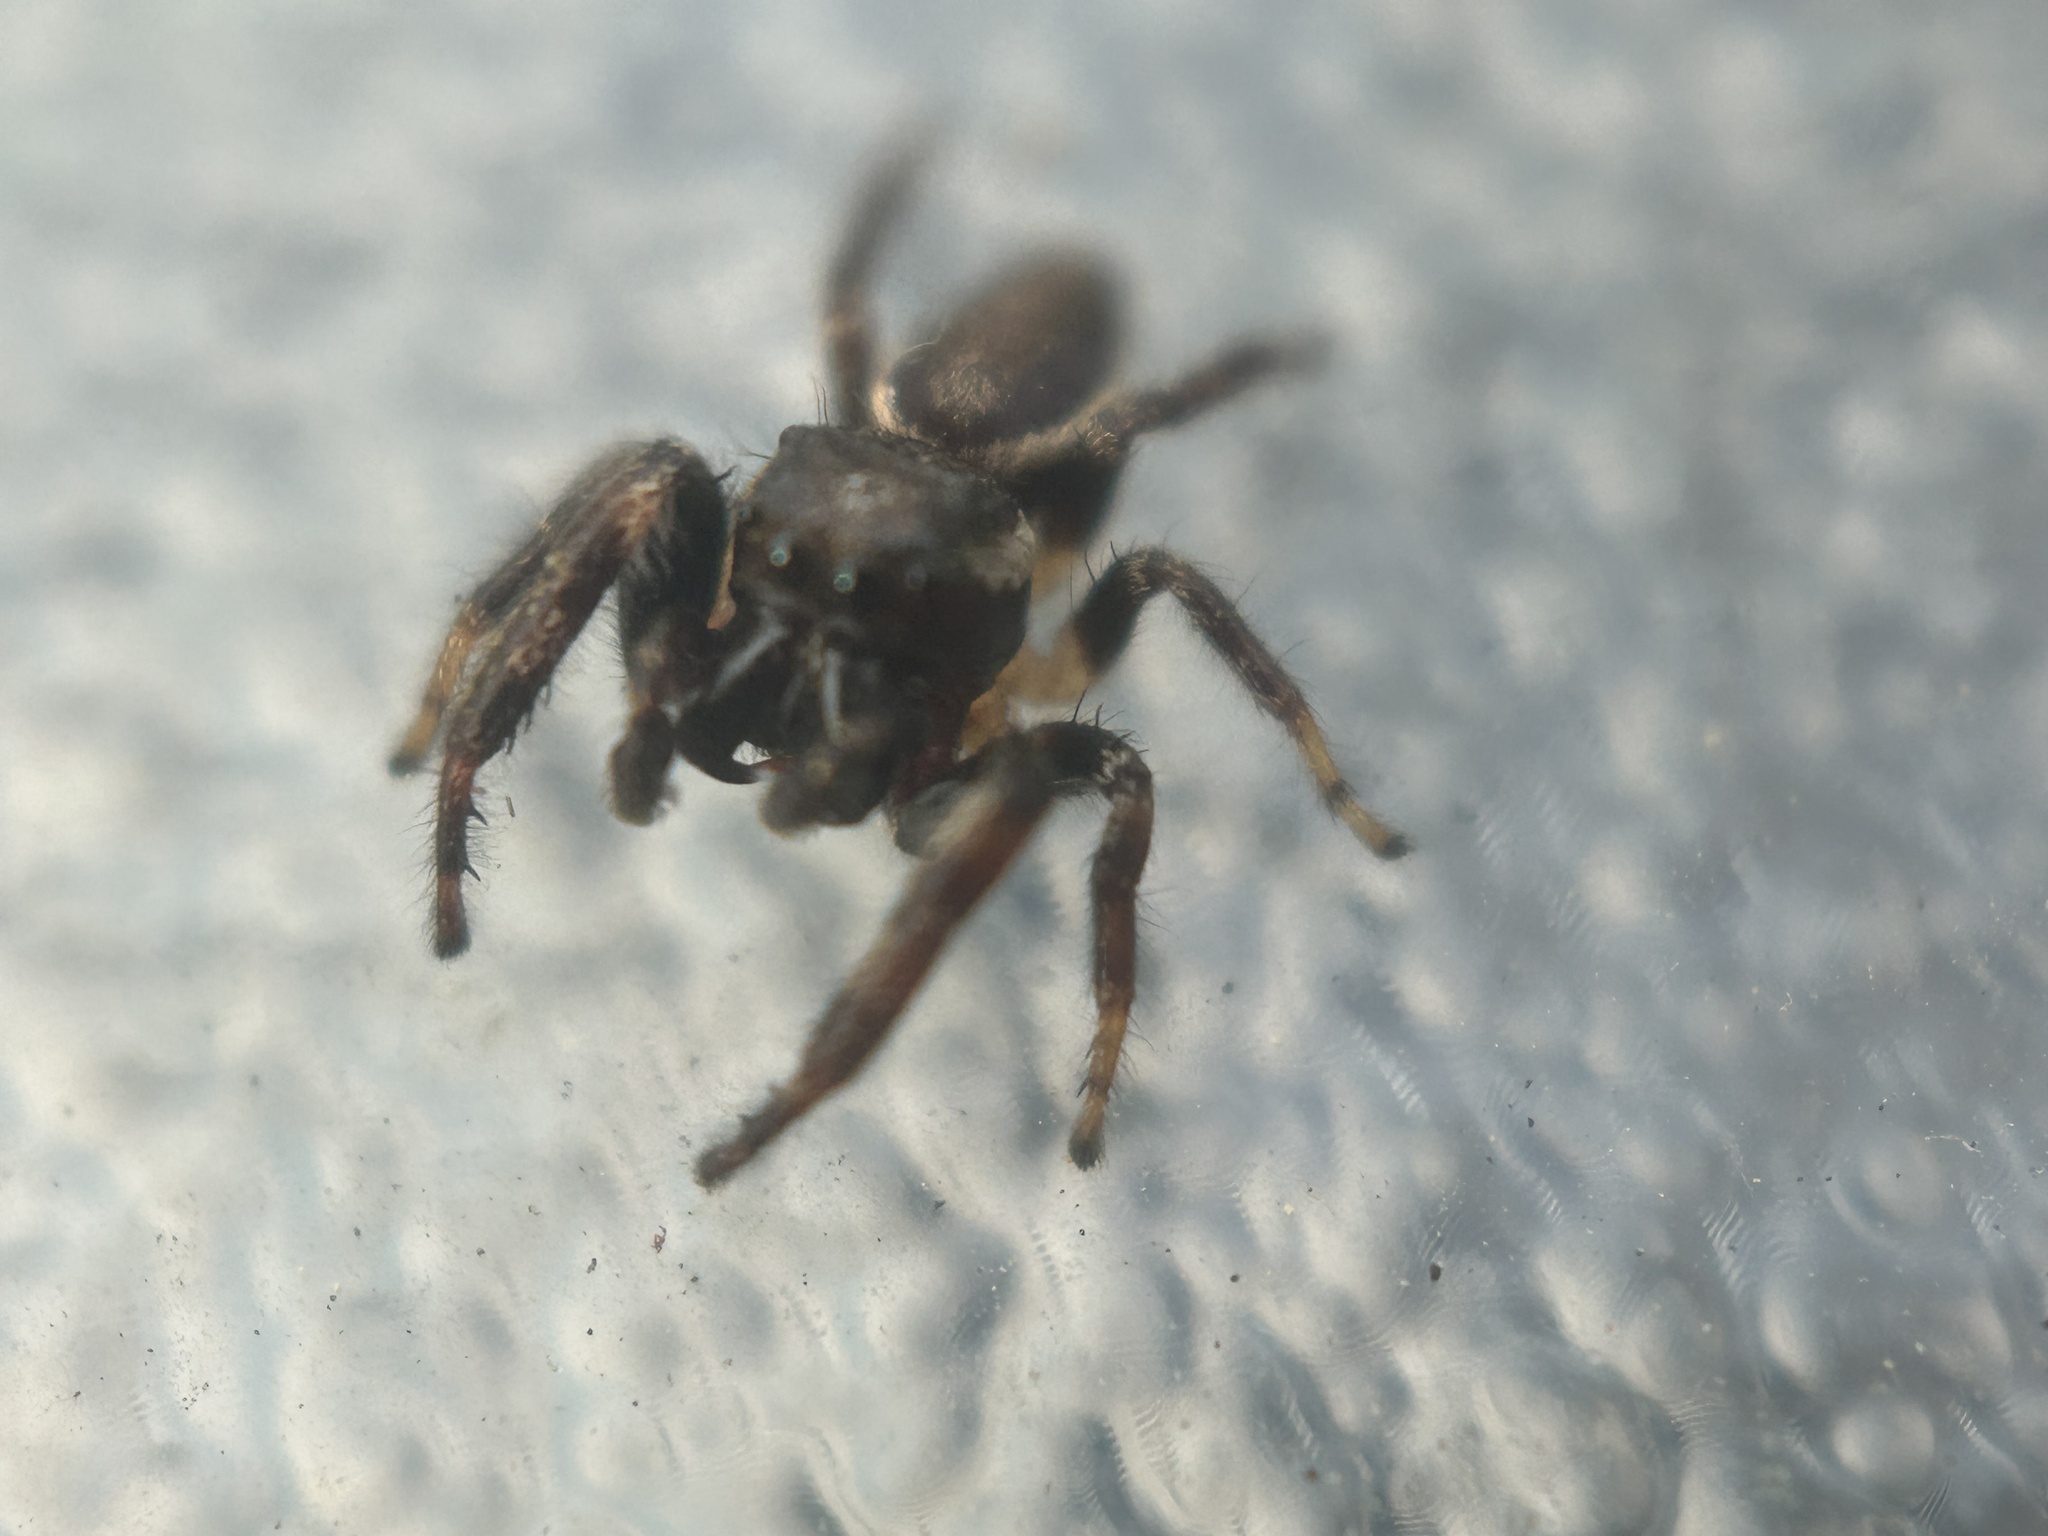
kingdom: Animalia
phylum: Arthropoda
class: Arachnida
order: Araneae
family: Salticidae
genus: Eris
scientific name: Eris militaris
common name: Bronze jumper
